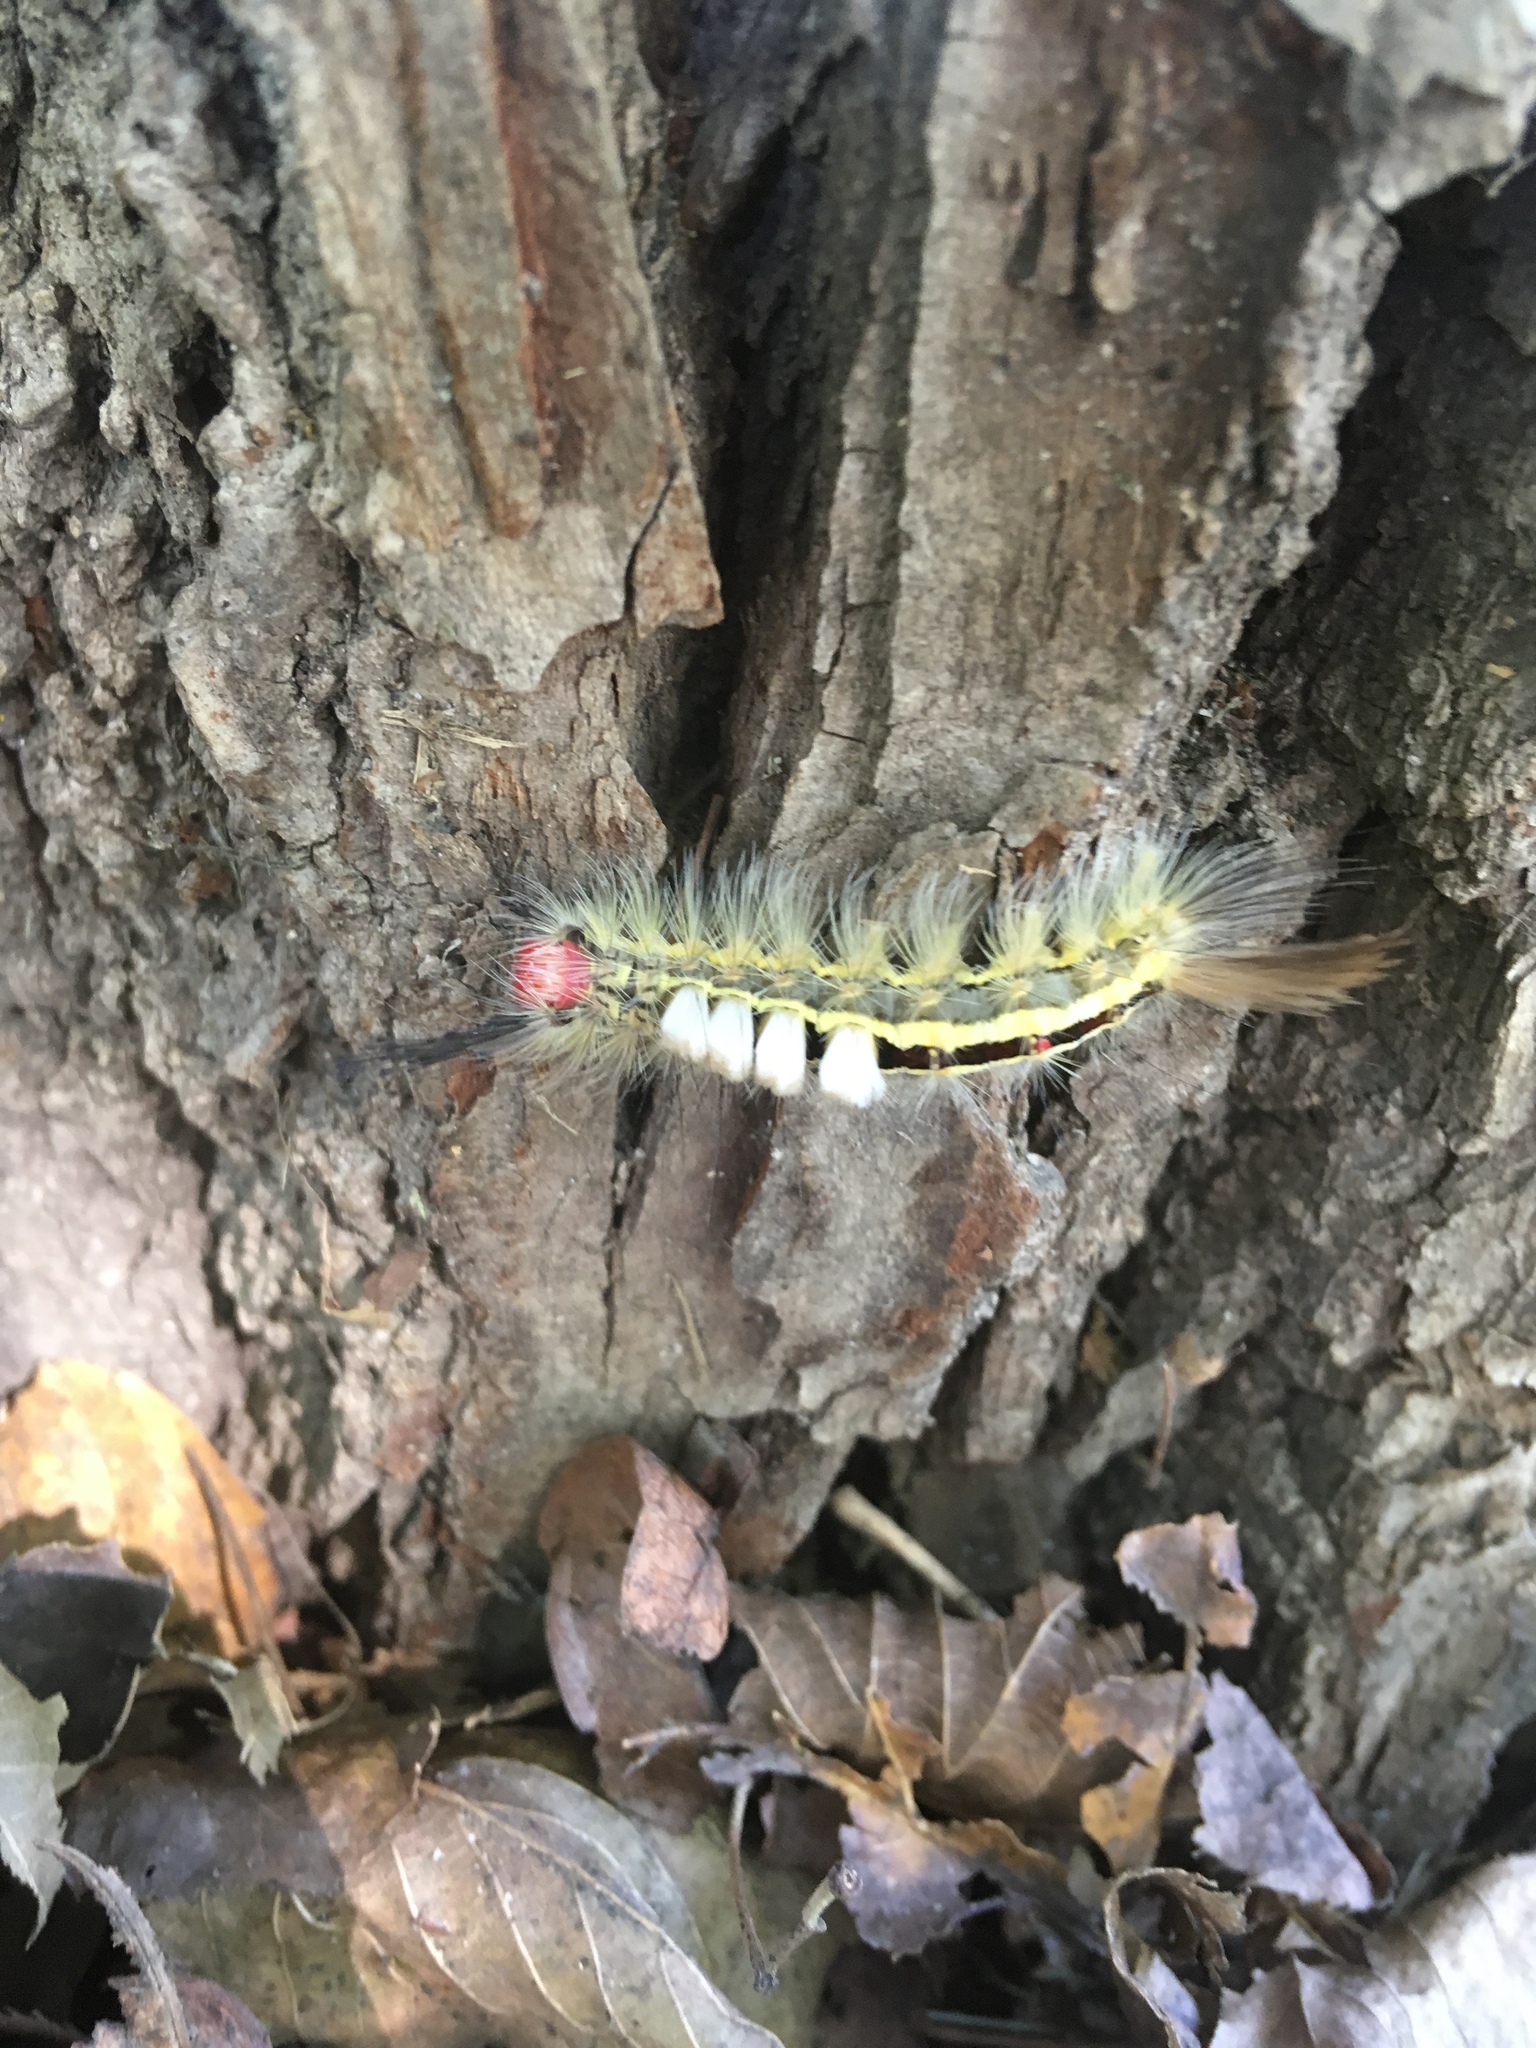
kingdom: Animalia
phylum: Arthropoda
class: Insecta
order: Lepidoptera
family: Erebidae
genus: Orgyia
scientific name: Orgyia leucostigma
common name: White-marked tussock moth
